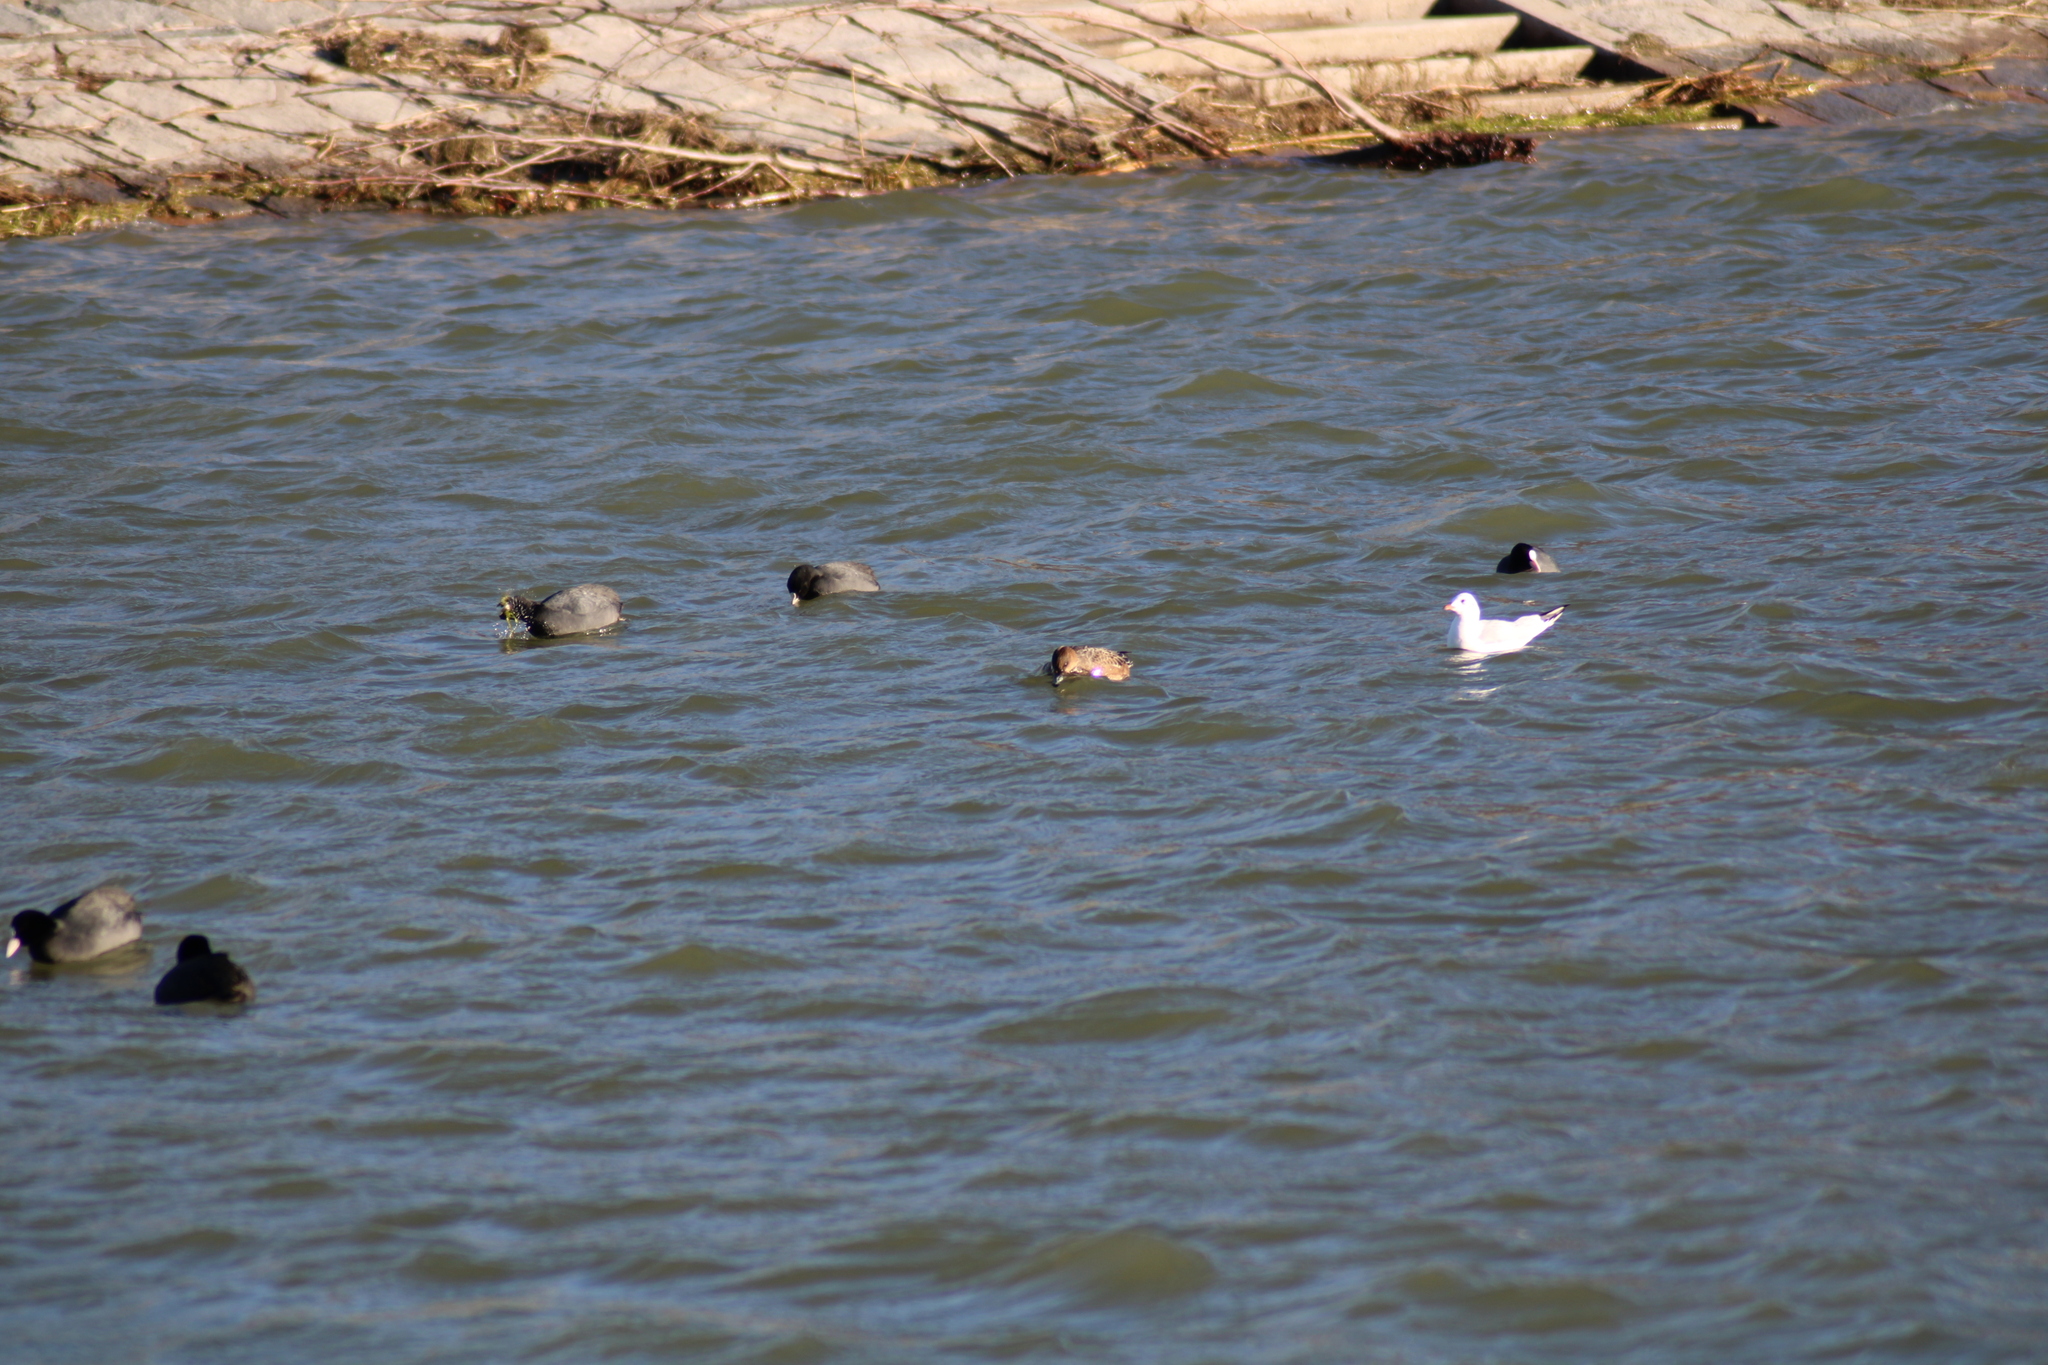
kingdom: Animalia
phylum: Chordata
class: Aves
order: Anseriformes
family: Anatidae
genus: Mareca
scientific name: Mareca penelope
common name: Eurasian wigeon
